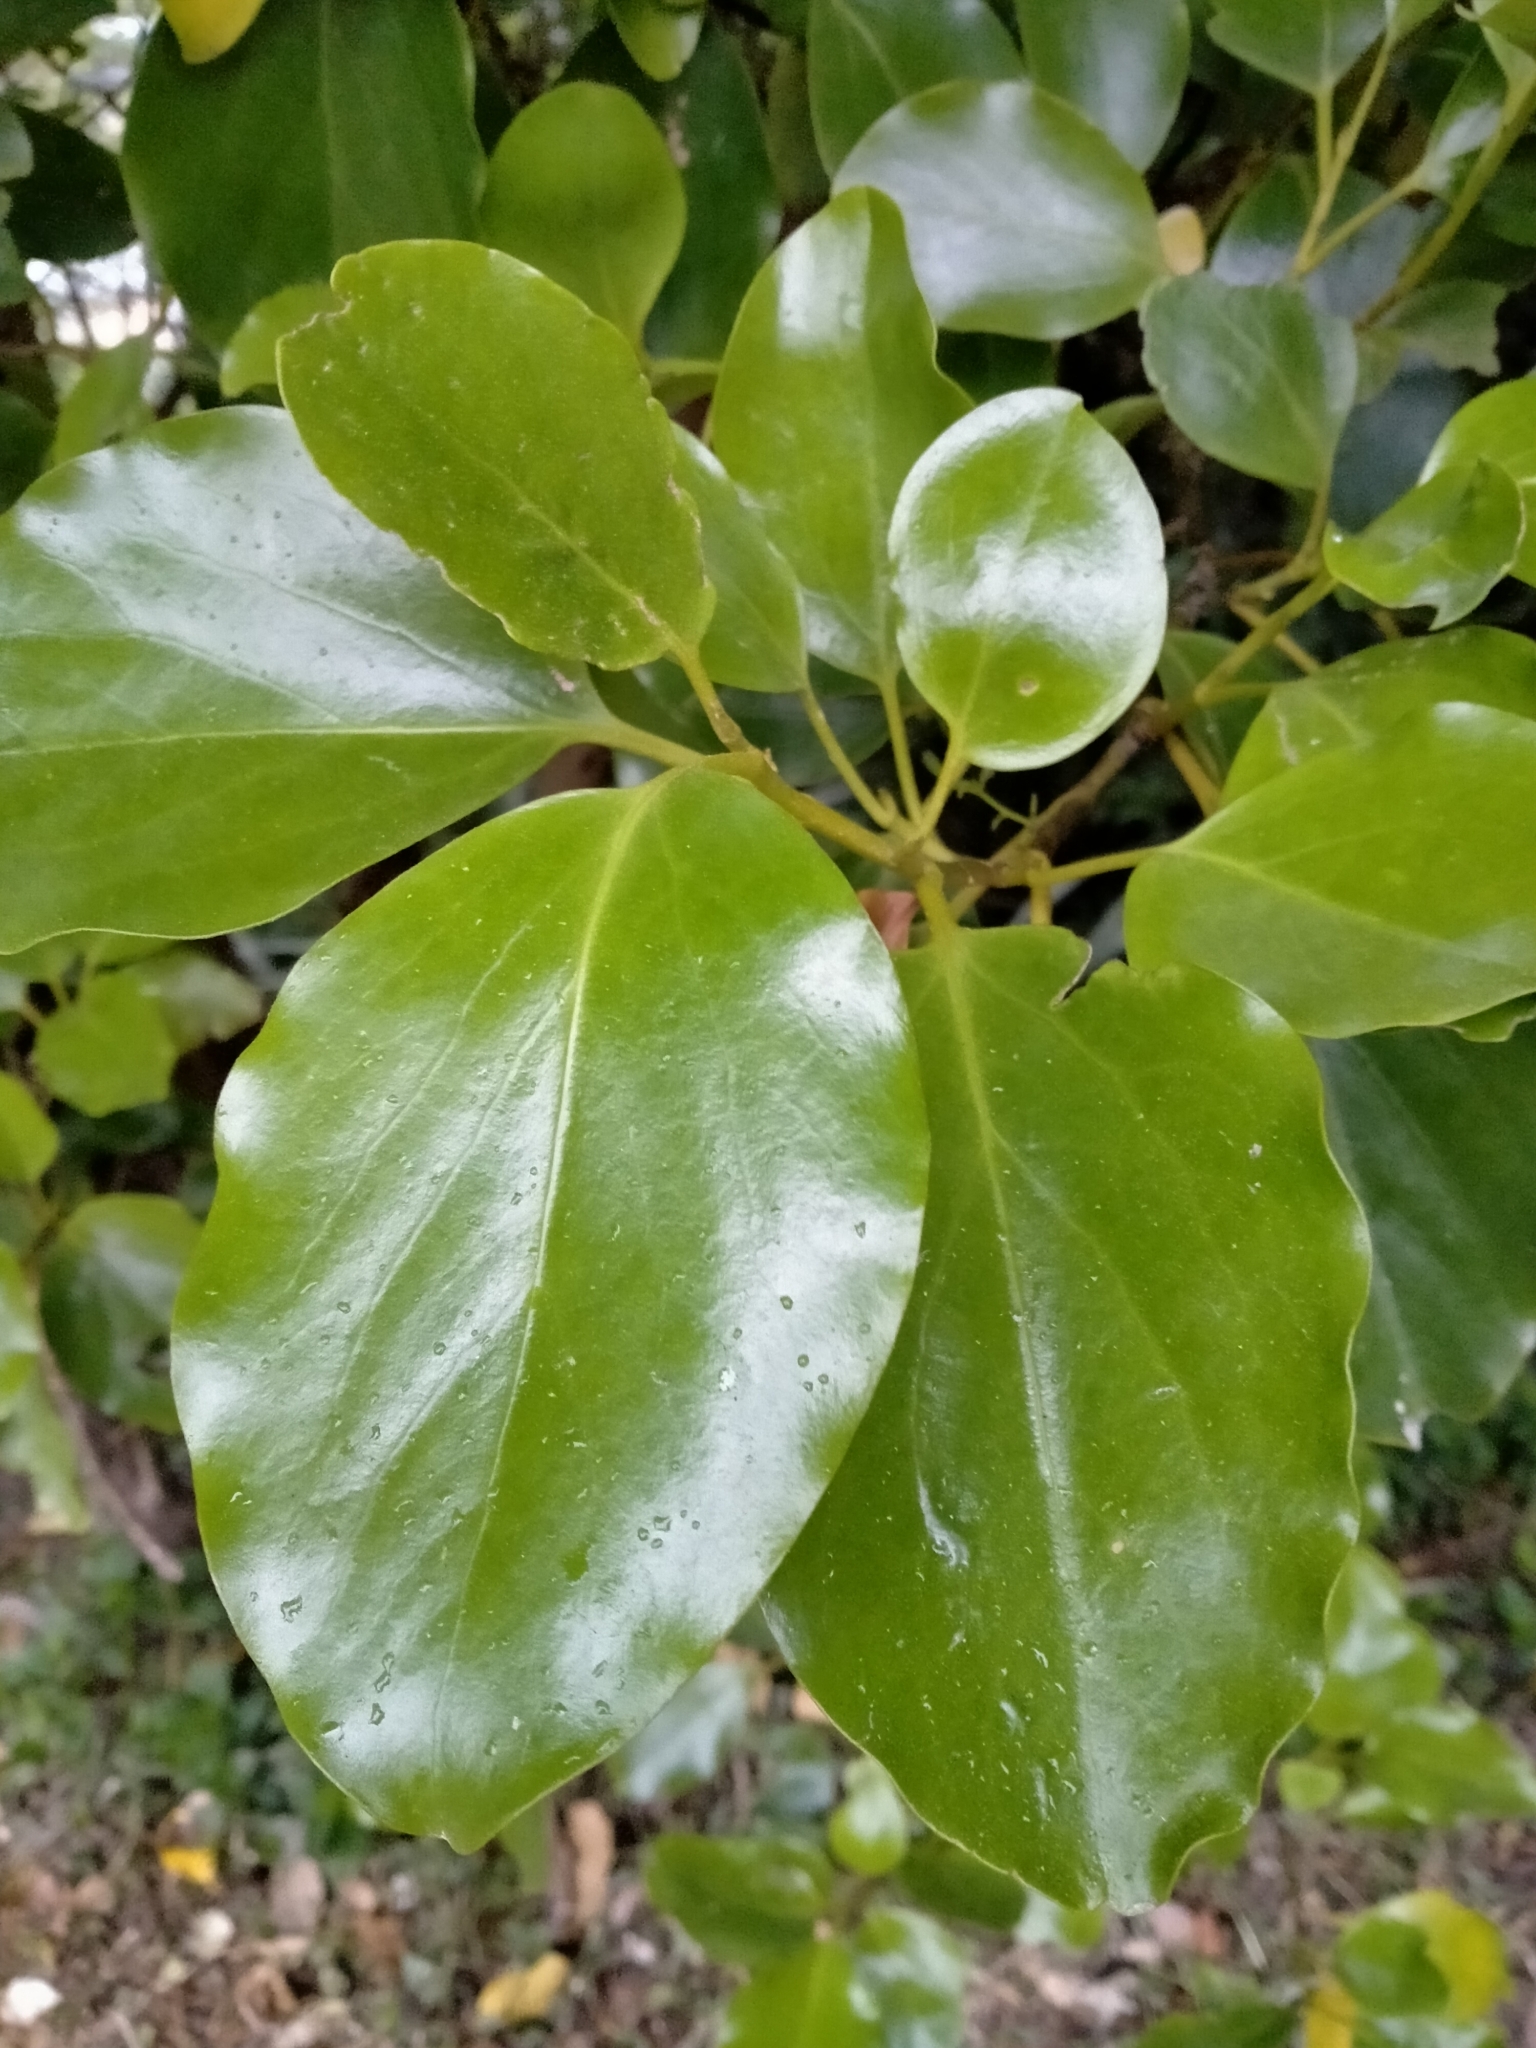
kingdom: Plantae
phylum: Tracheophyta
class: Magnoliopsida
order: Apiales
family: Griseliniaceae
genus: Griselinia
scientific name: Griselinia littoralis
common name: New zealand broadleaf
